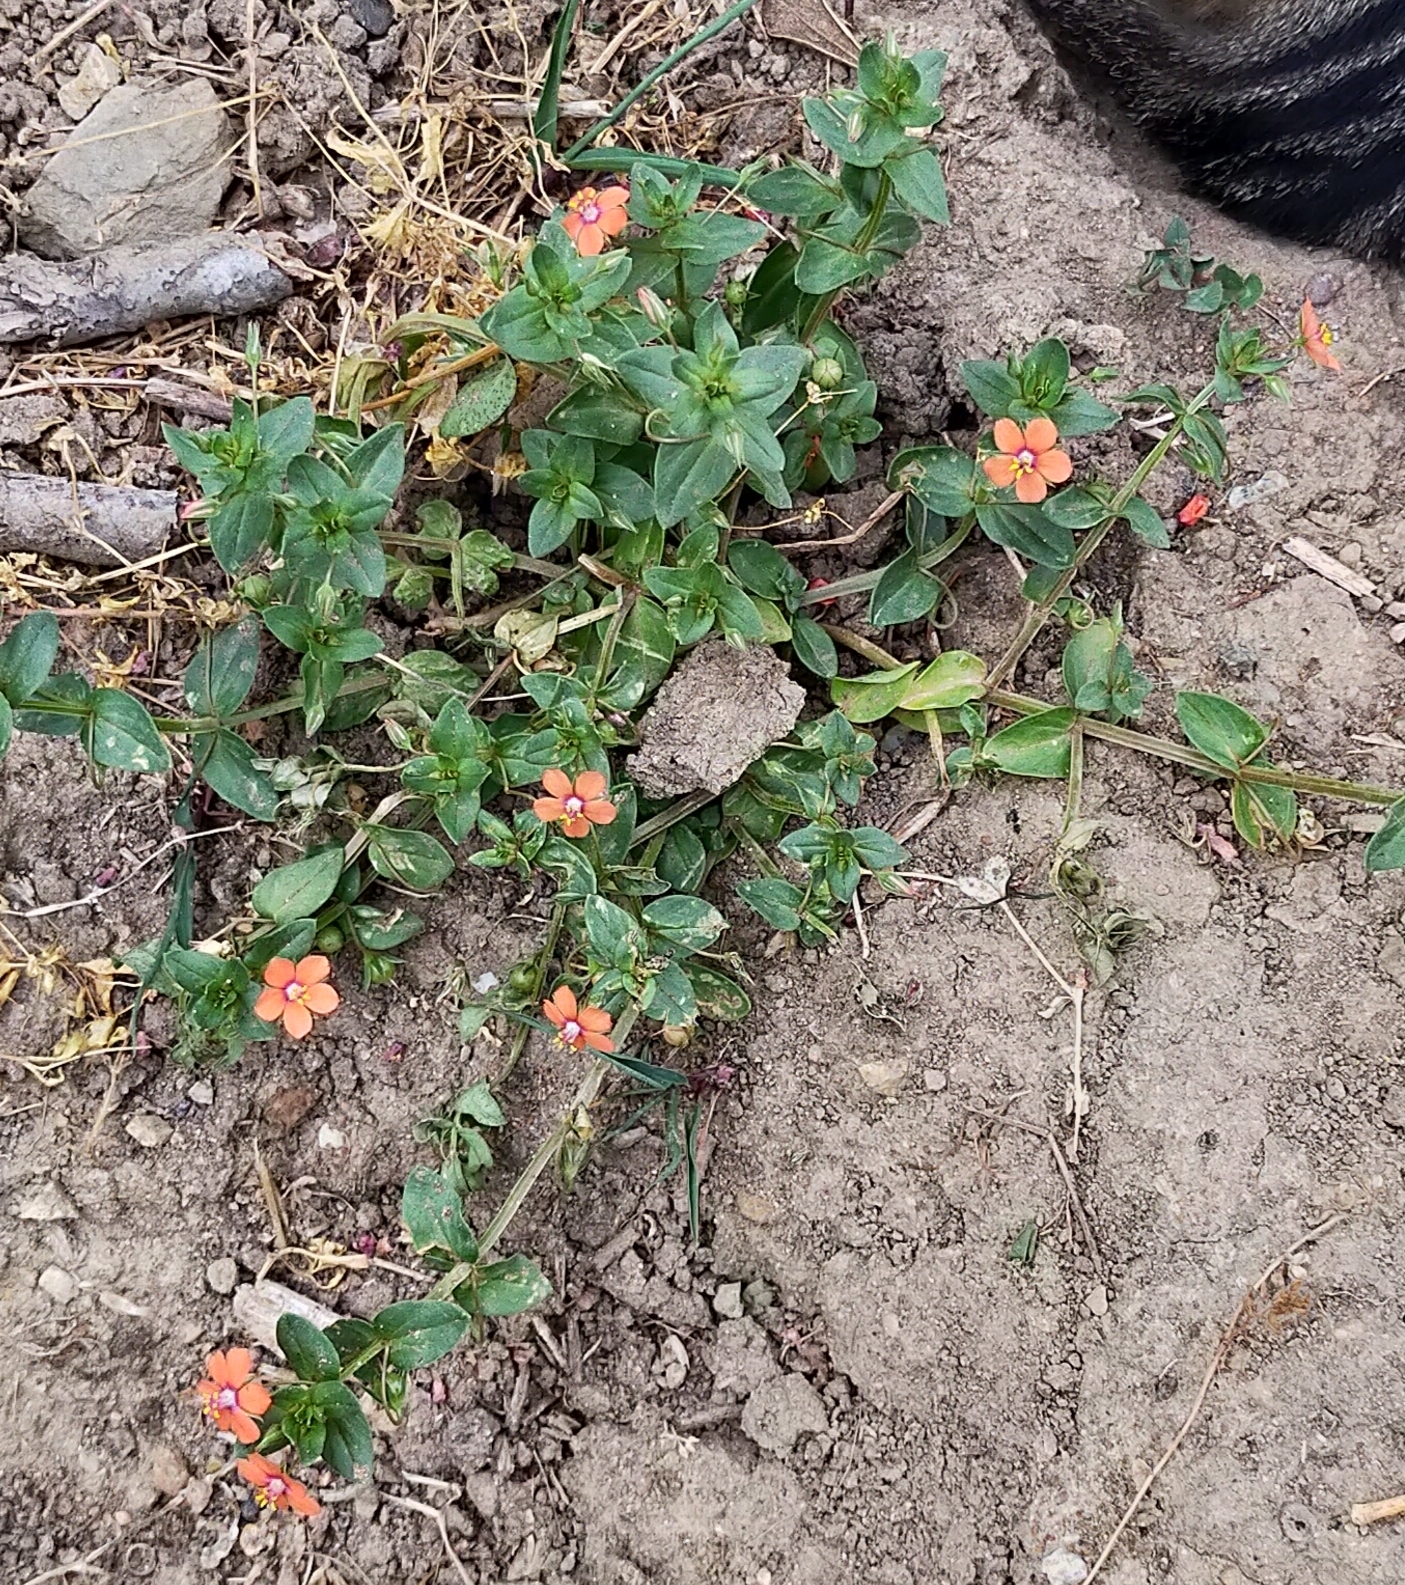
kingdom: Plantae
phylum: Tracheophyta
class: Magnoliopsida
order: Ericales
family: Primulaceae
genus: Lysimachia
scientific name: Lysimachia arvensis
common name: Scarlet pimpernel
